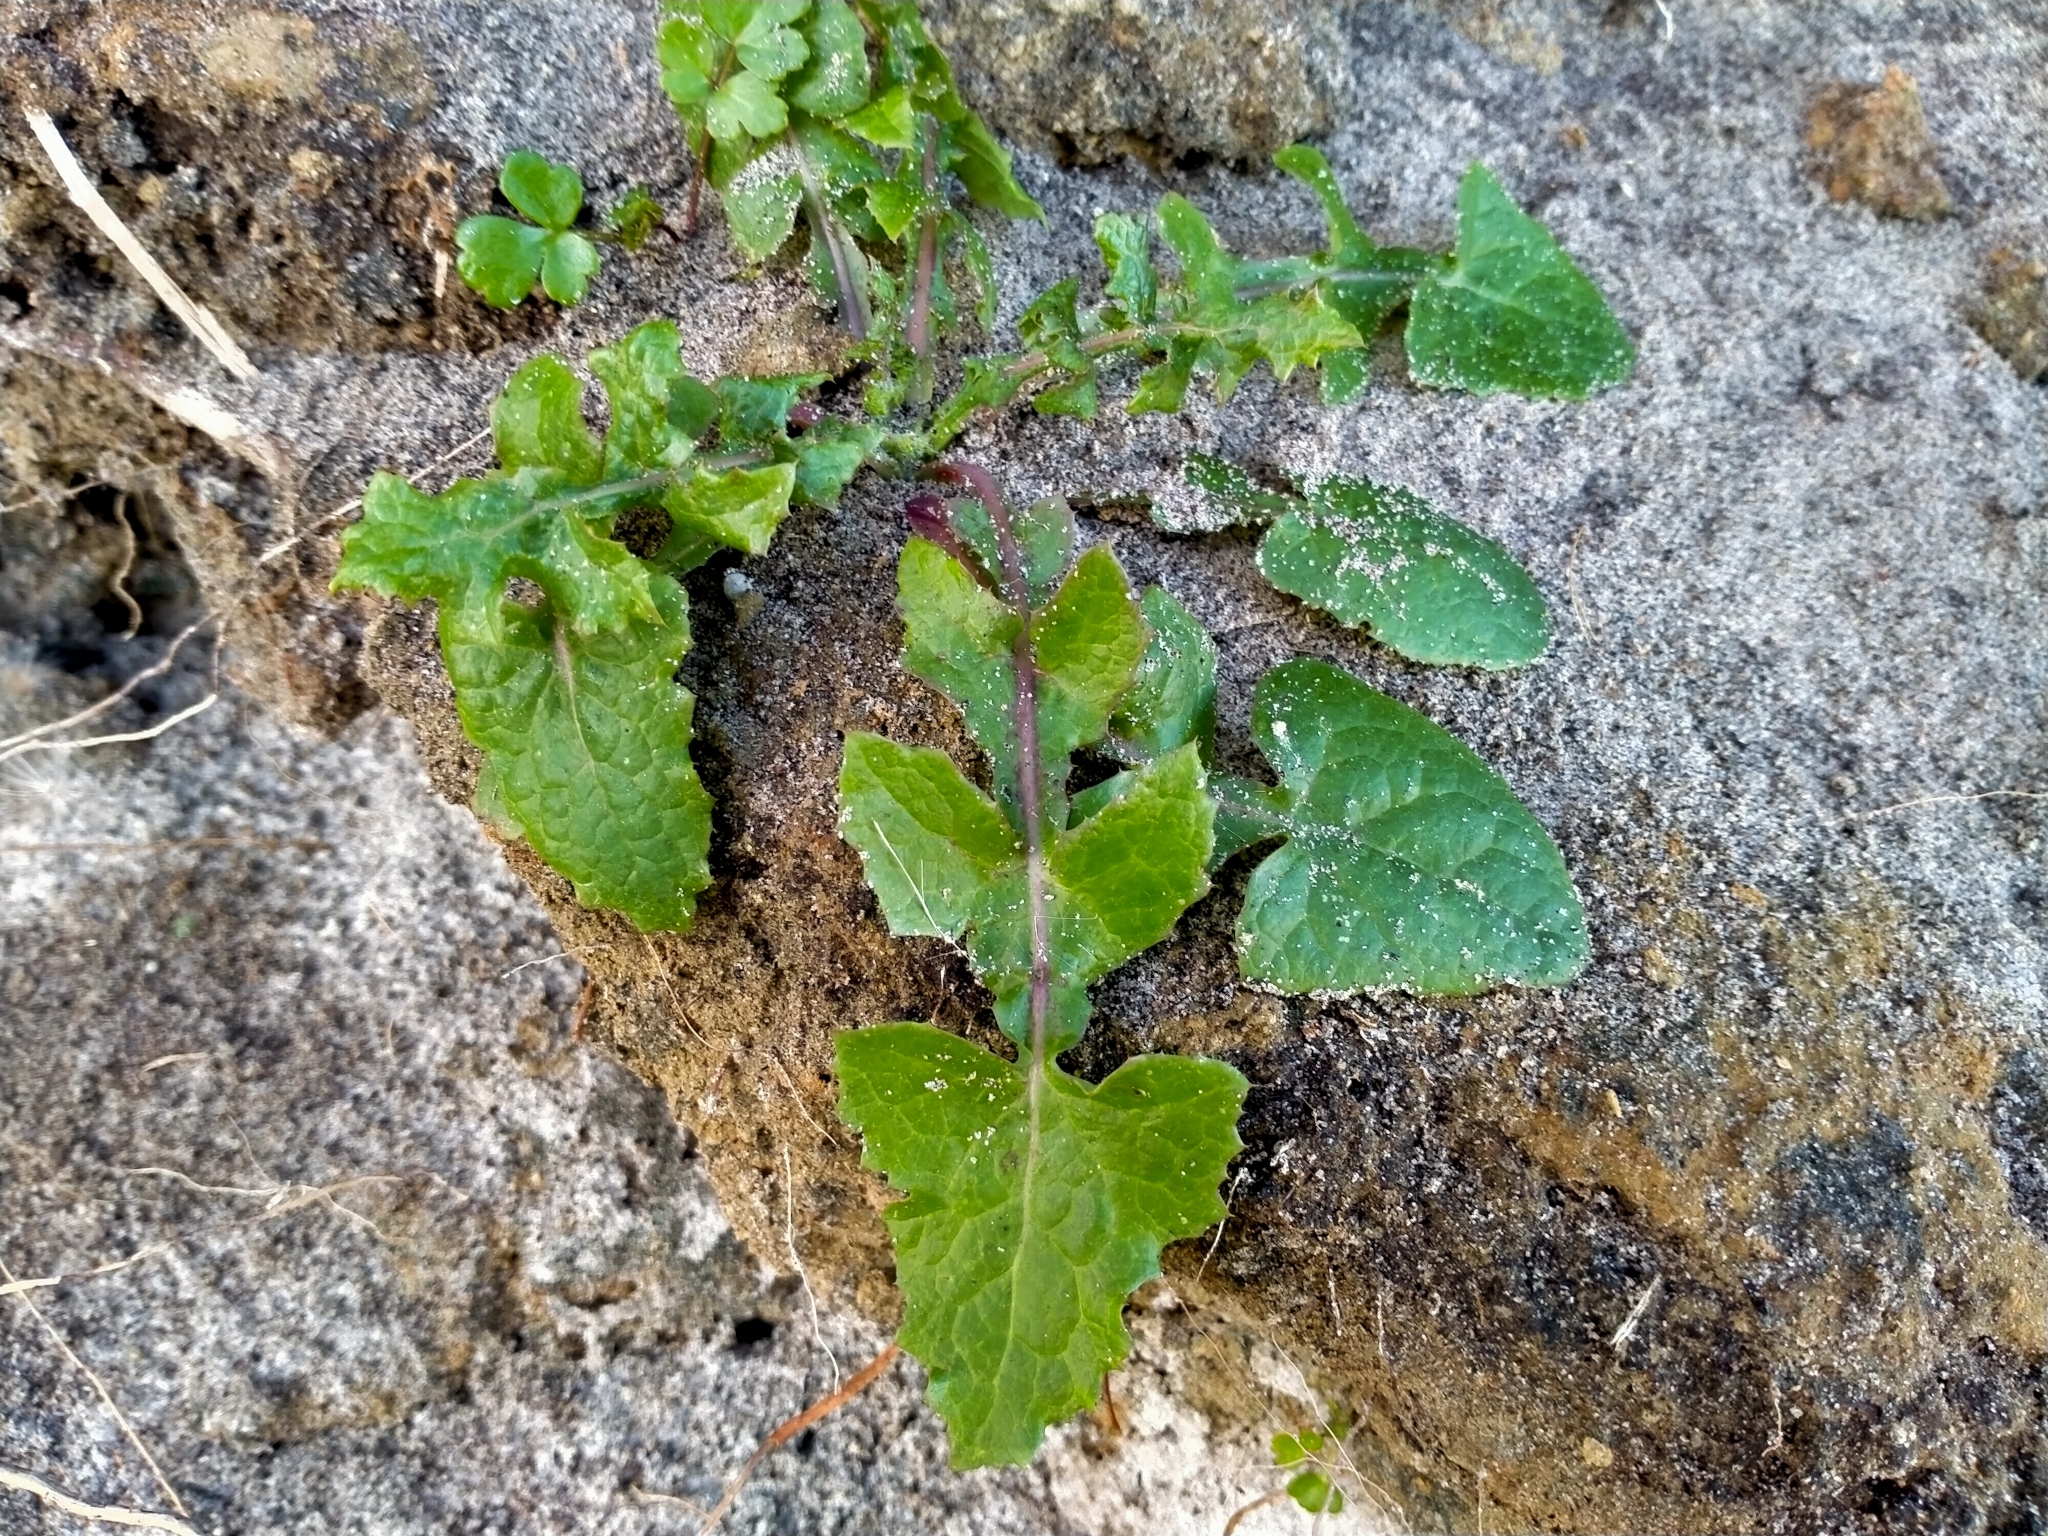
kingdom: Plantae
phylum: Tracheophyta
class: Magnoliopsida
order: Asterales
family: Asteraceae
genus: Sonchus
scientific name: Sonchus oleraceus
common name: Common sowthistle
